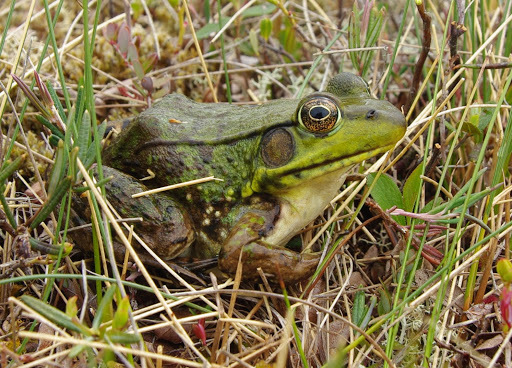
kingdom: Animalia
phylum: Chordata
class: Amphibia
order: Anura
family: Ranidae
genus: Lithobates
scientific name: Lithobates clamitans
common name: Green frog
